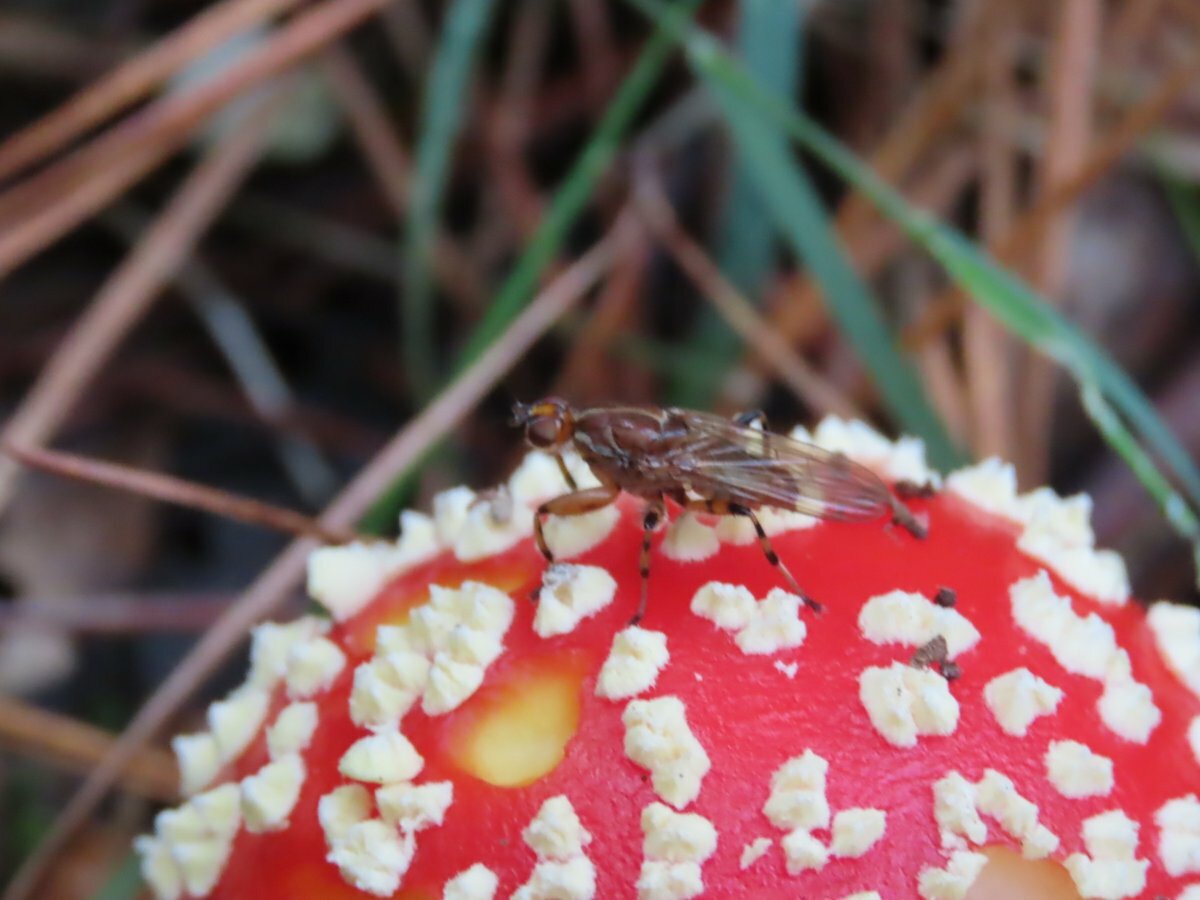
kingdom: Animalia
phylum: Arthropoda
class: Insecta
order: Diptera
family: Heleomyzidae
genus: Tapeigaster
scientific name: Tapeigaster annulipes
